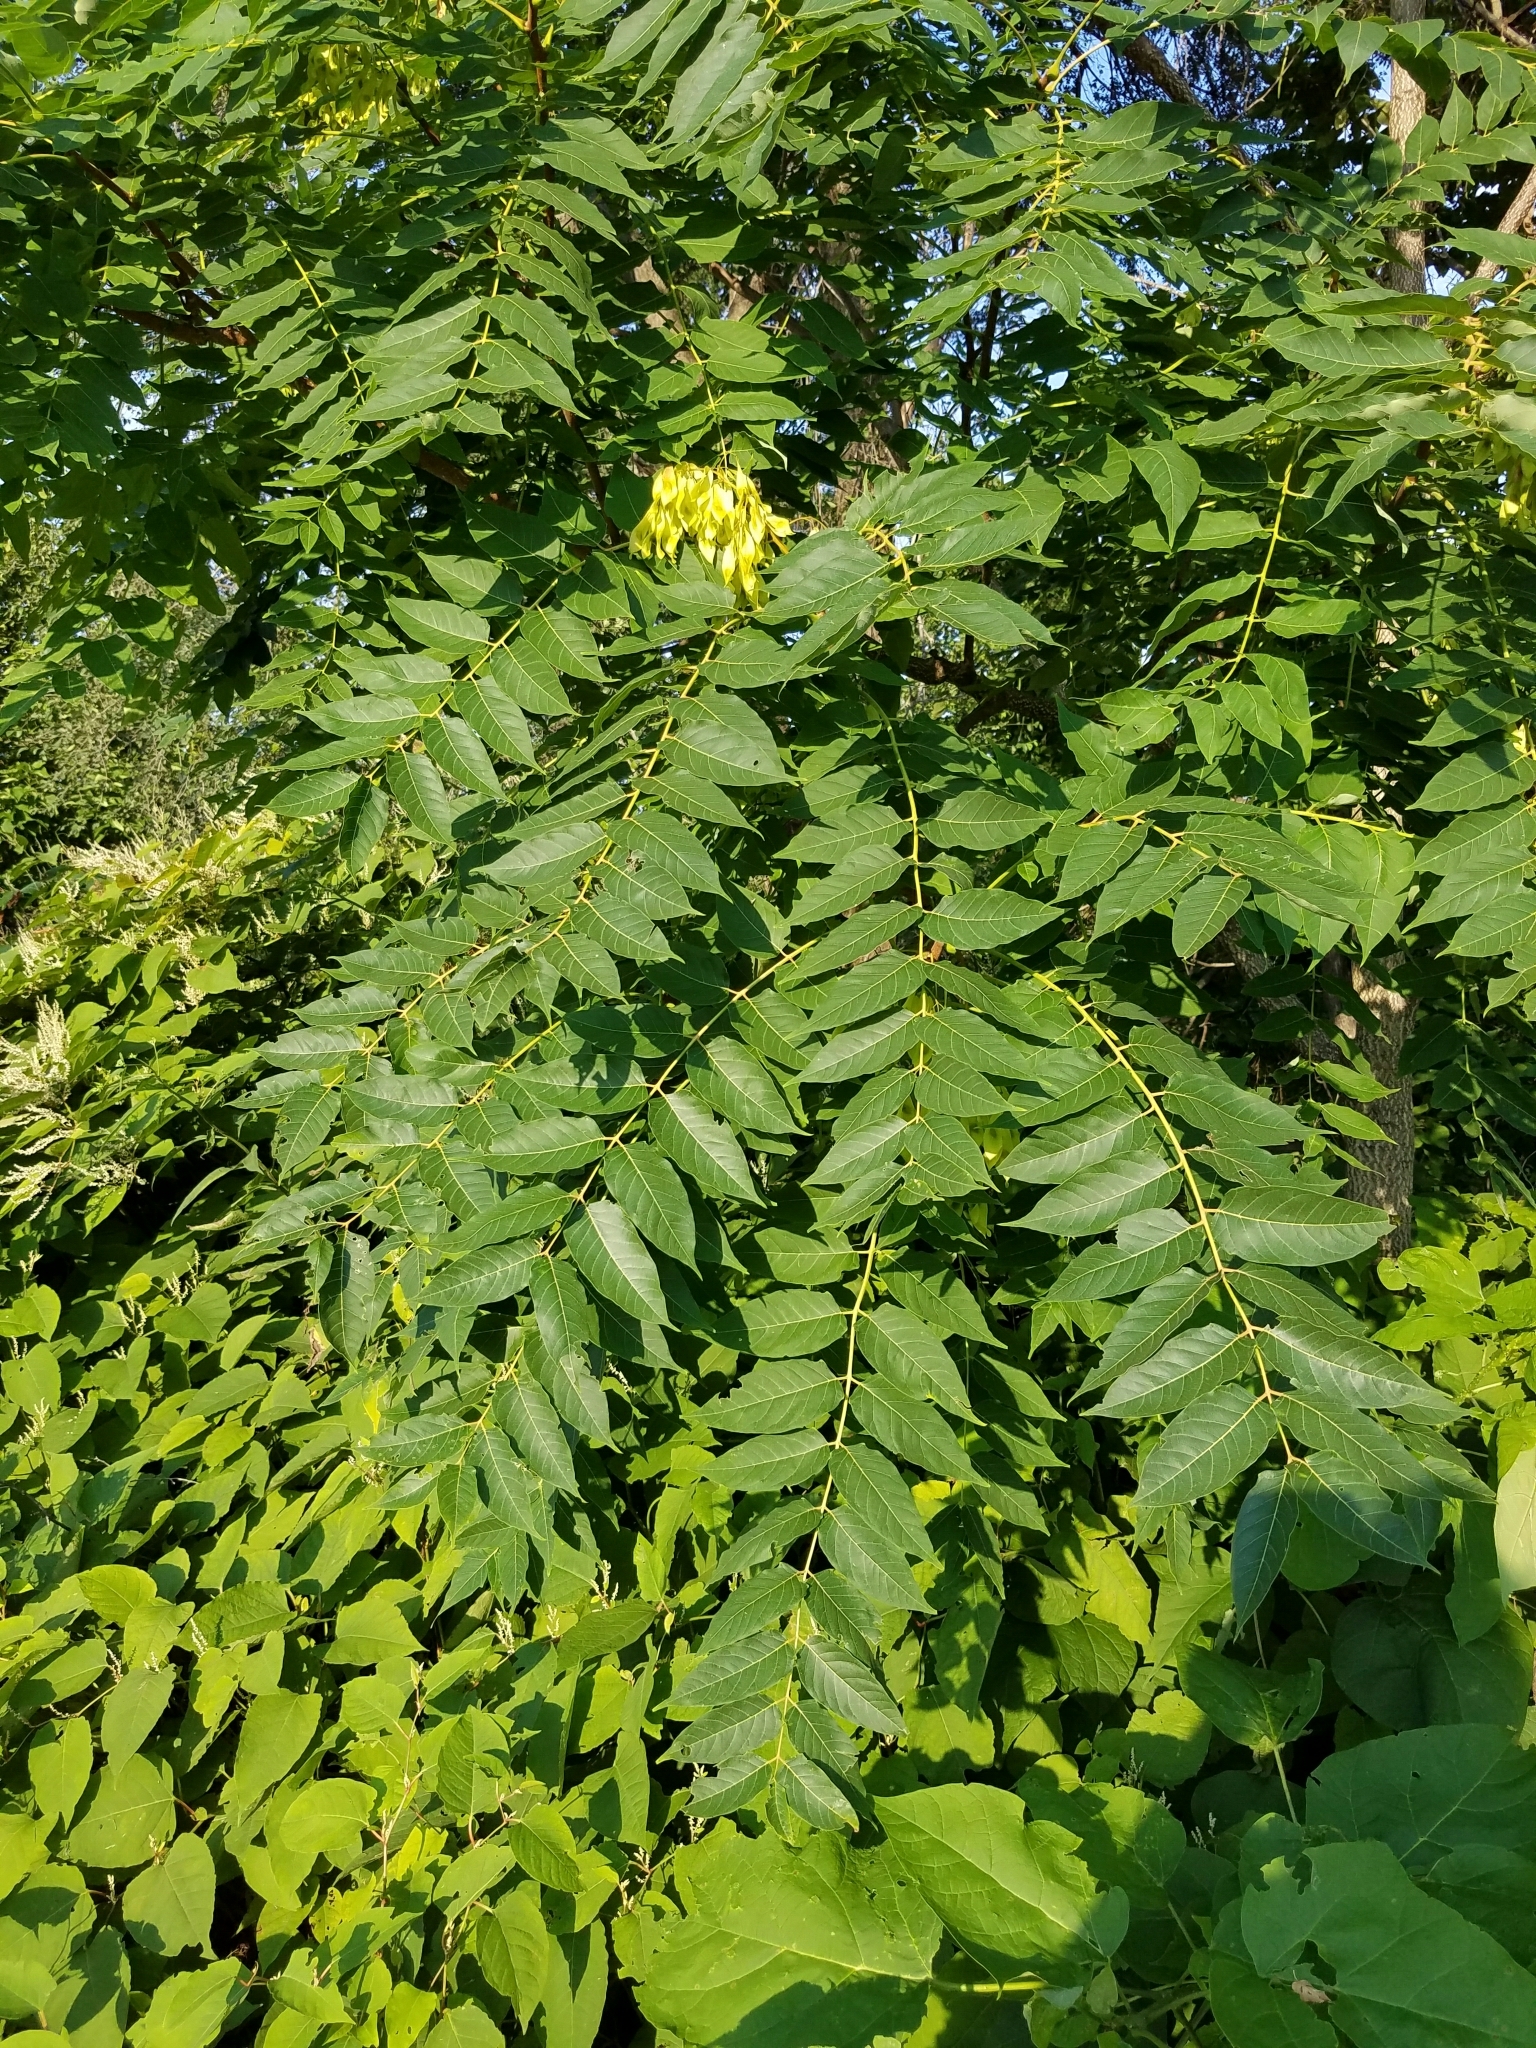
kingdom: Plantae
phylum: Tracheophyta
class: Magnoliopsida
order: Sapindales
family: Simaroubaceae
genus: Ailanthus
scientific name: Ailanthus altissima
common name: Tree-of-heaven
